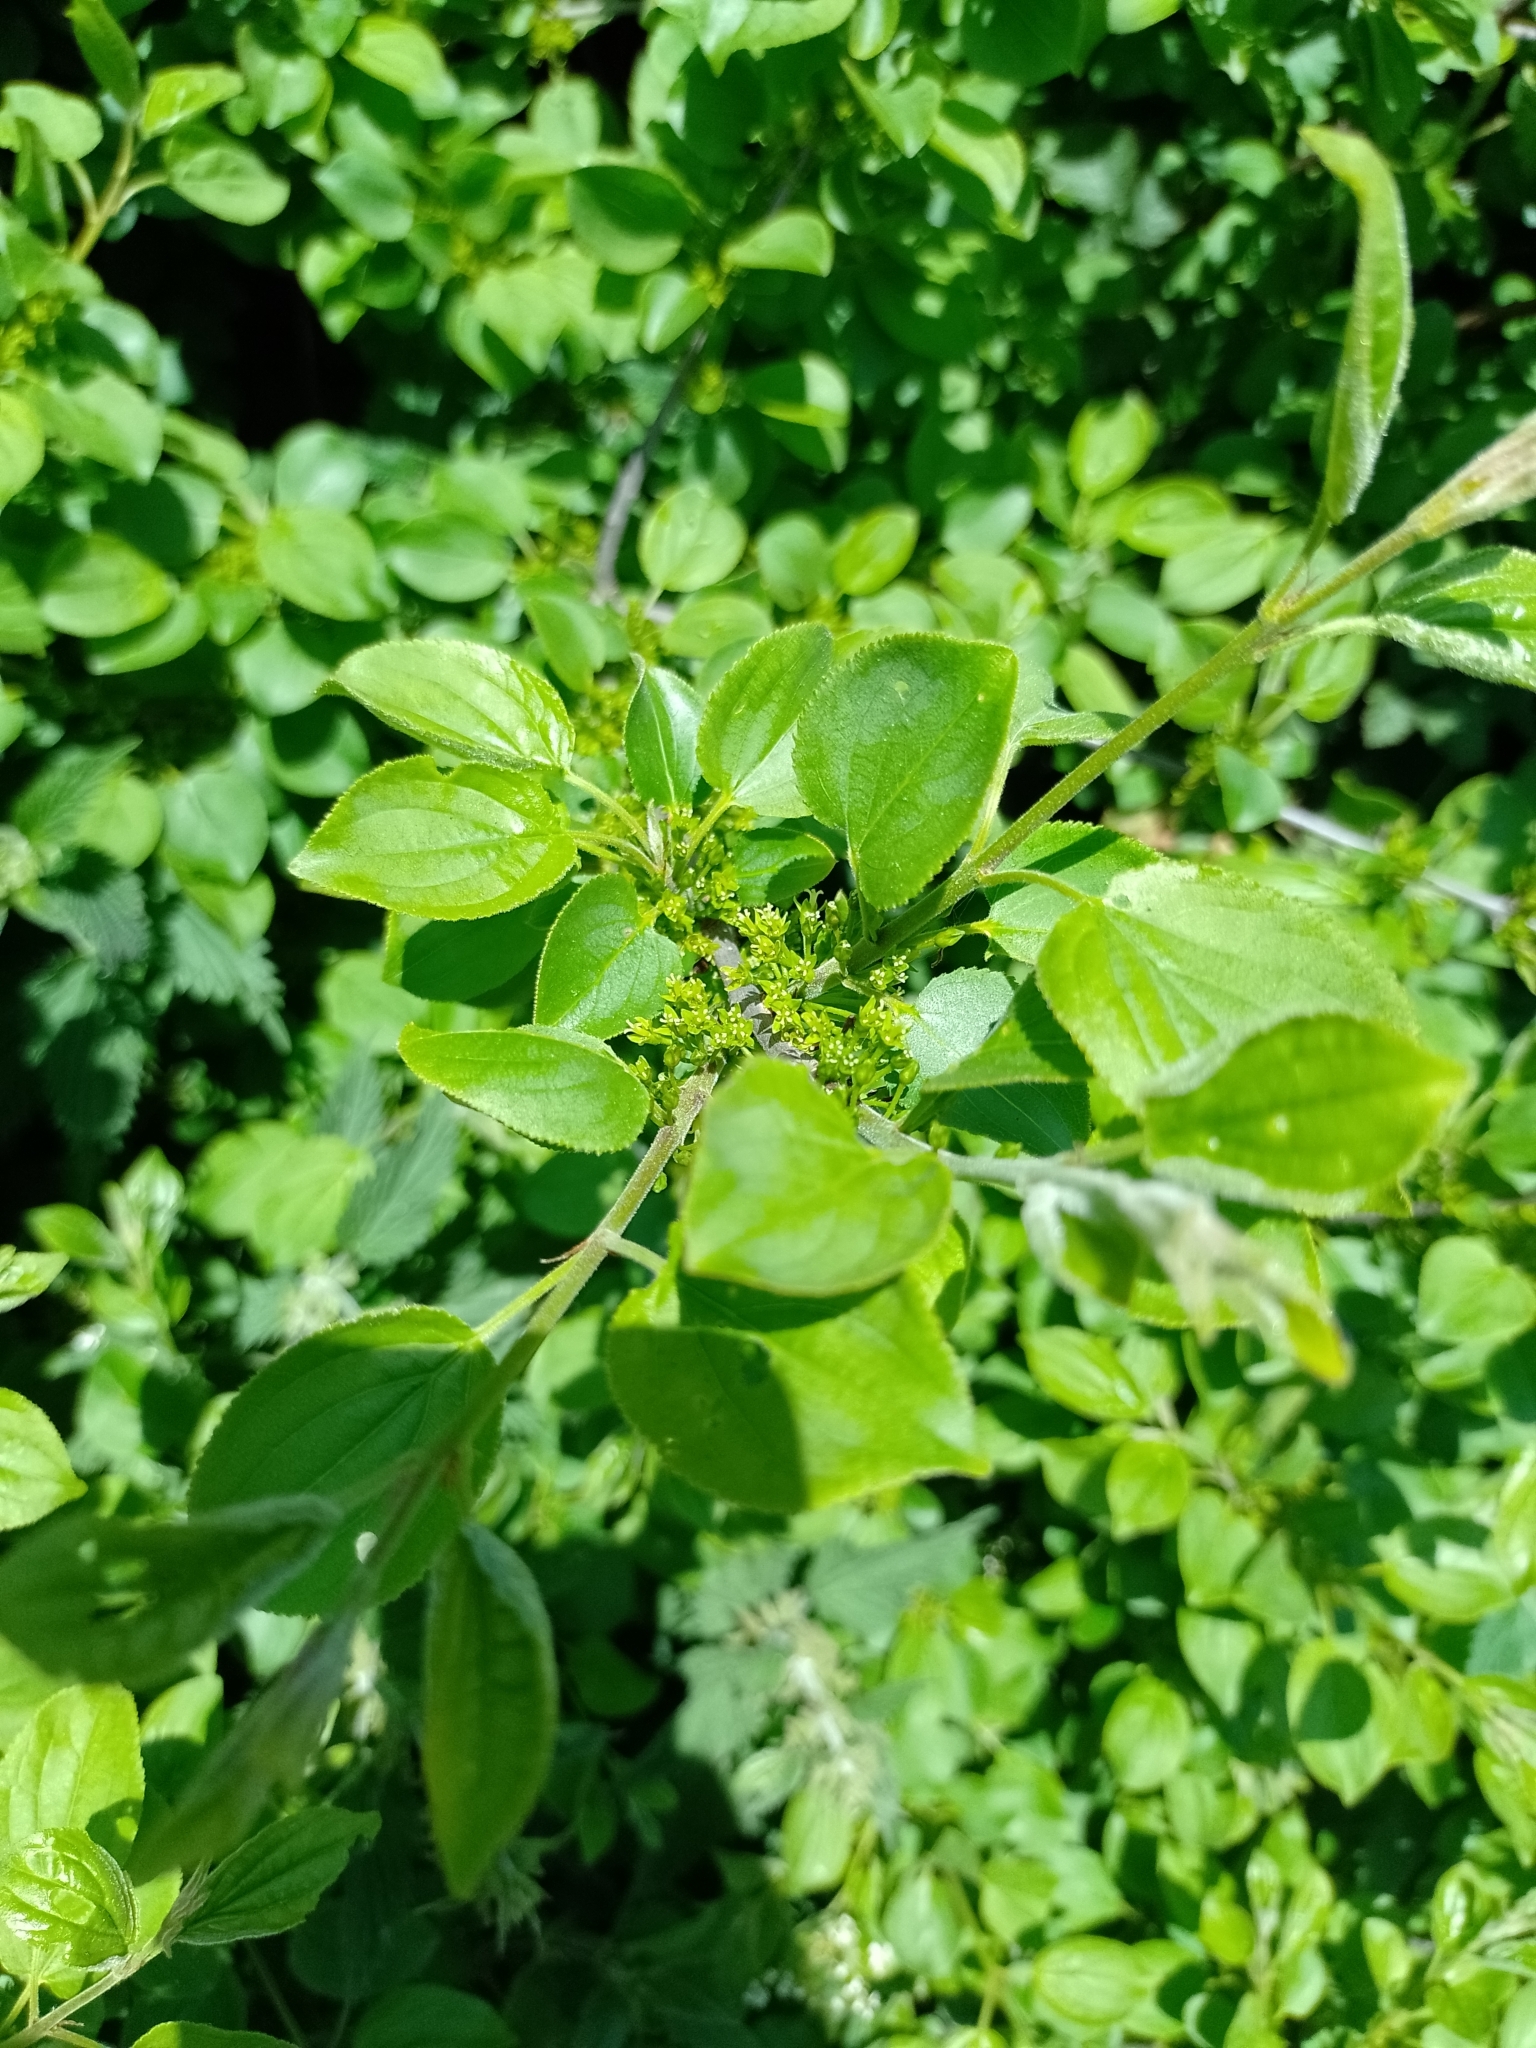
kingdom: Plantae
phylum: Tracheophyta
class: Magnoliopsida
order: Rosales
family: Rhamnaceae
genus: Rhamnus
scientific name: Rhamnus cathartica
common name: Common buckthorn
